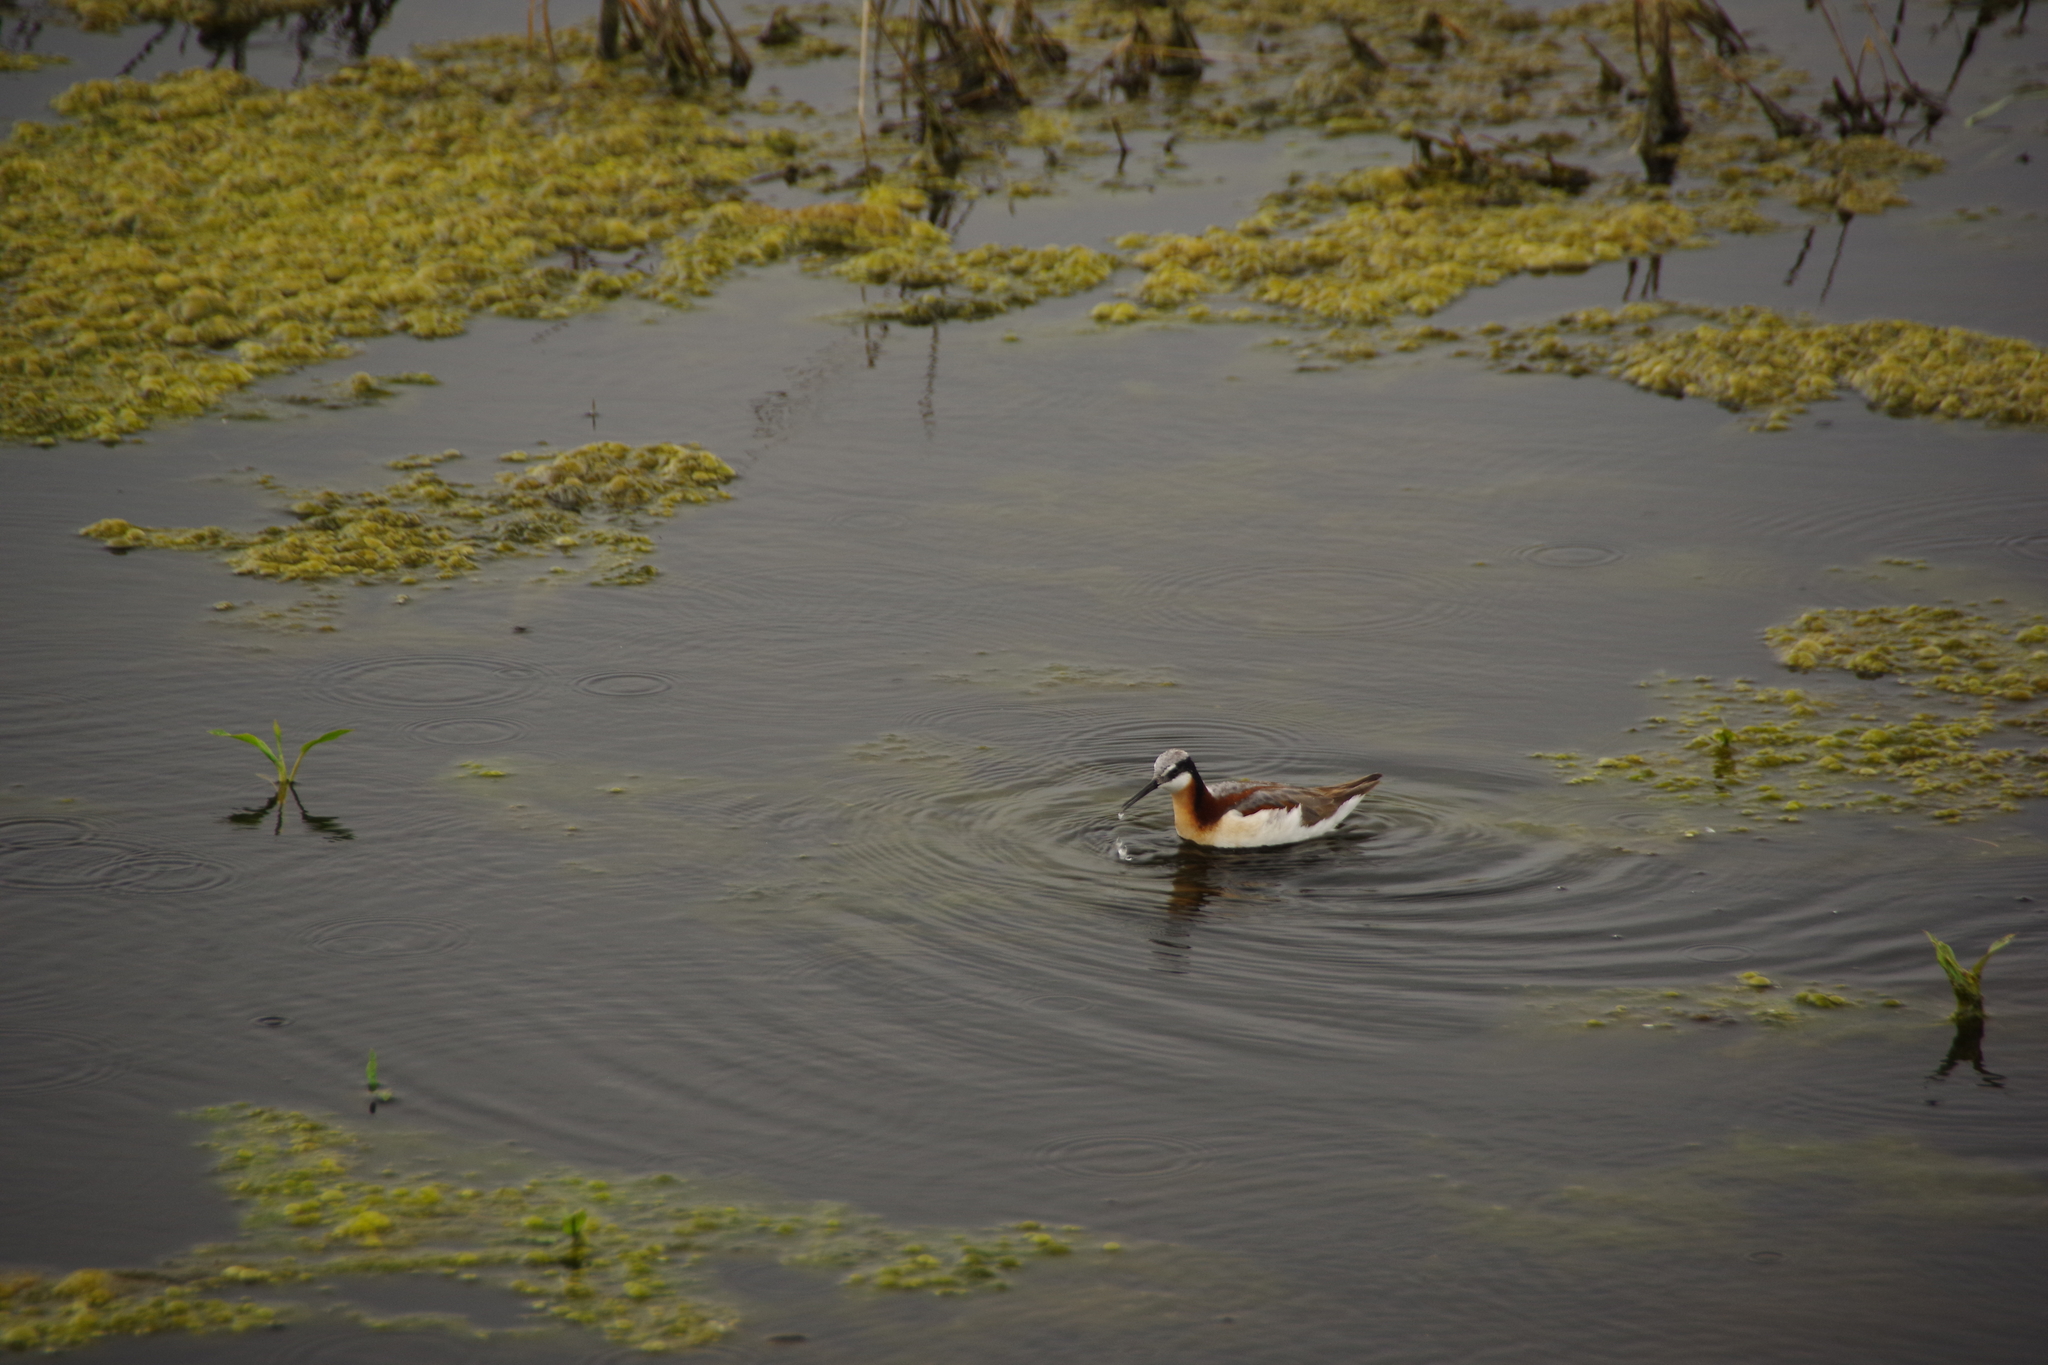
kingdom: Animalia
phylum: Chordata
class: Aves
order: Charadriiformes
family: Scolopacidae
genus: Phalaropus
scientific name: Phalaropus tricolor
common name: Wilson's phalarope
